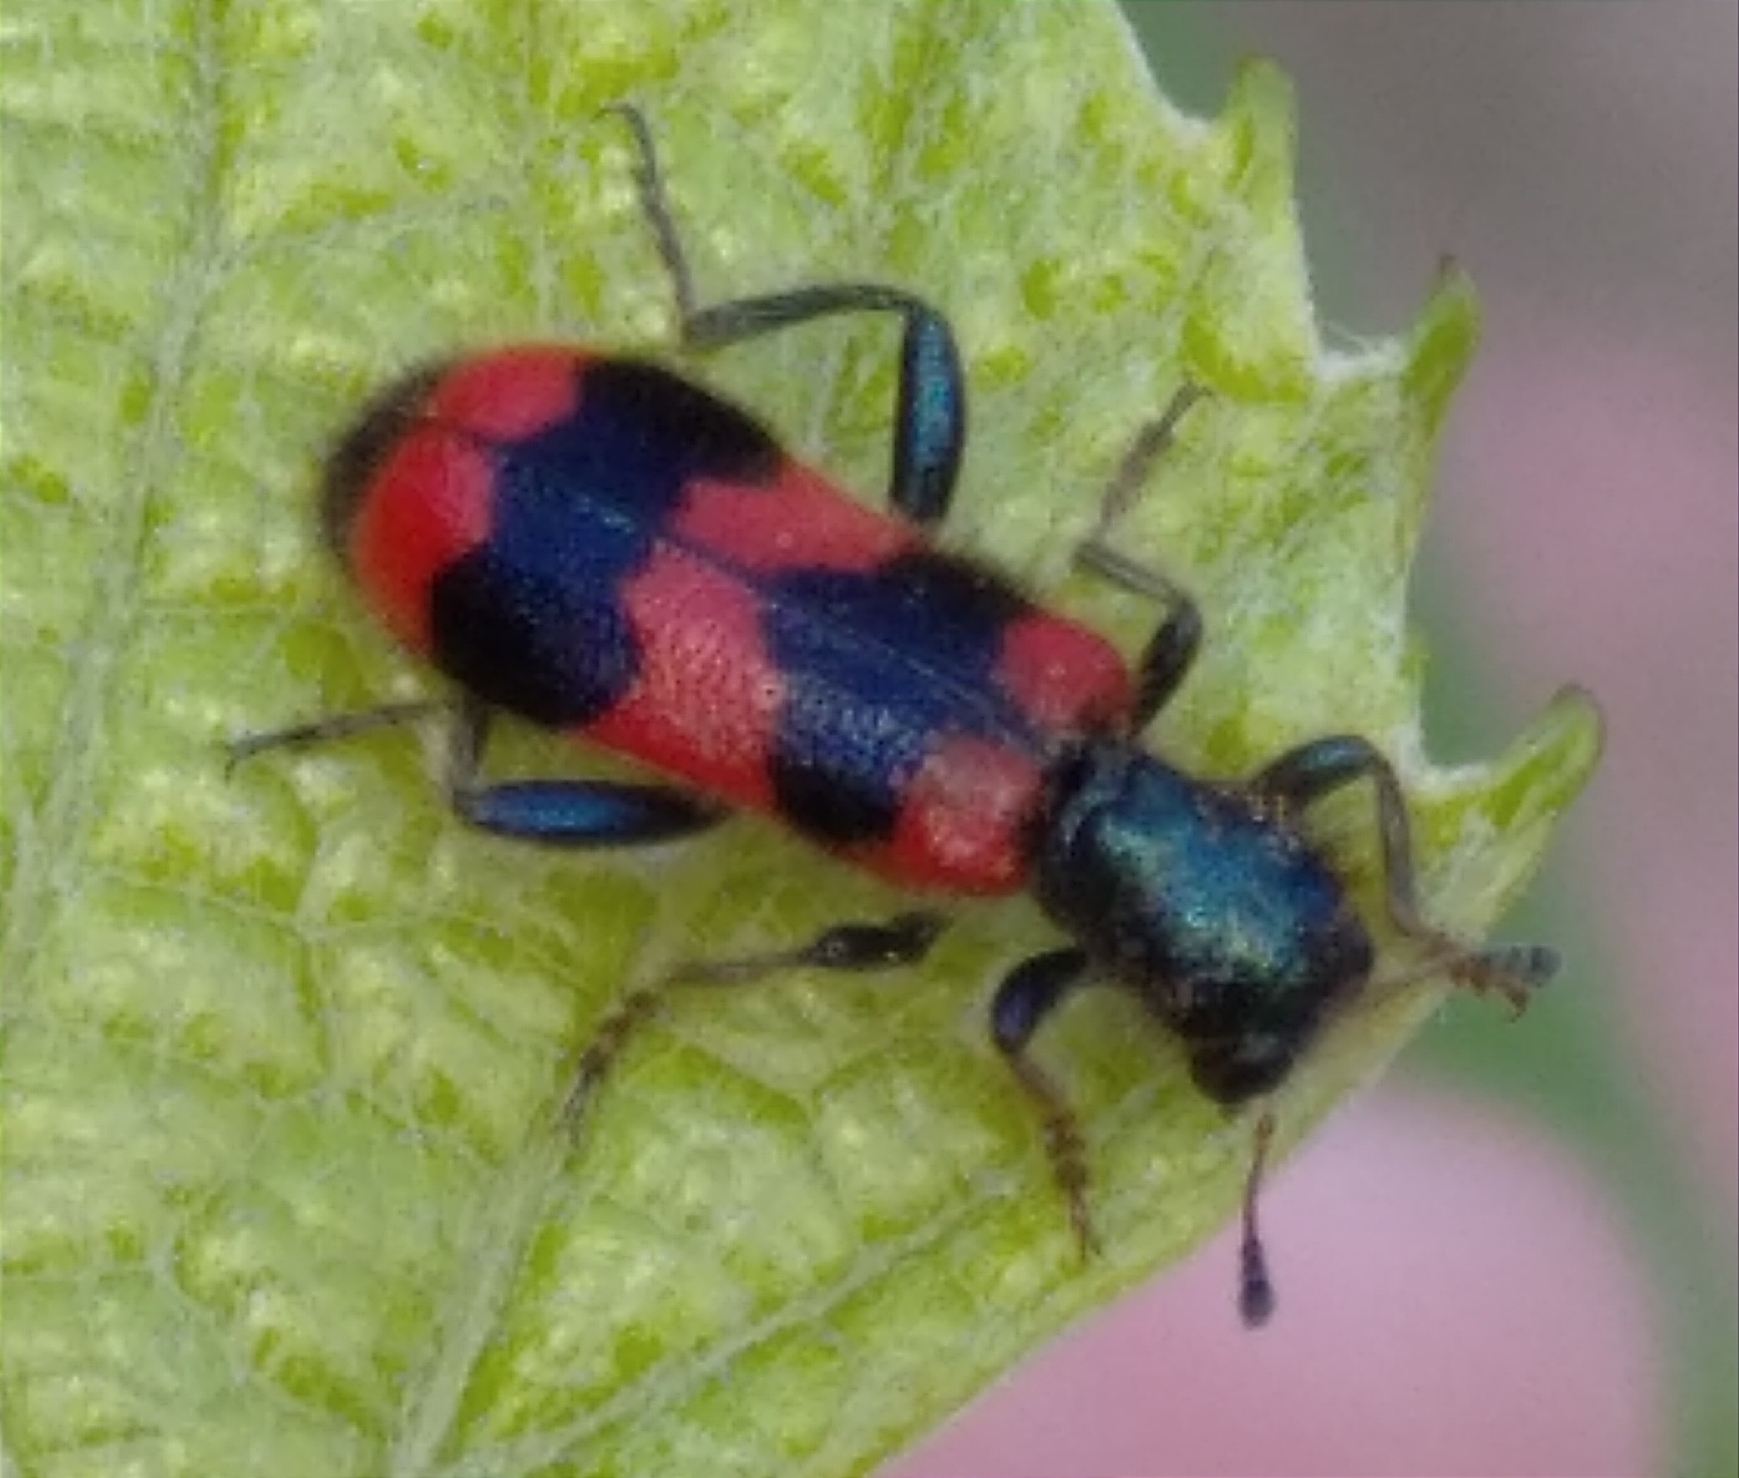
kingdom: Animalia
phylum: Arthropoda
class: Insecta
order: Coleoptera
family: Cleridae
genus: Trichodes
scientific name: Trichodes apiarius
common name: Bee-eating beetle
